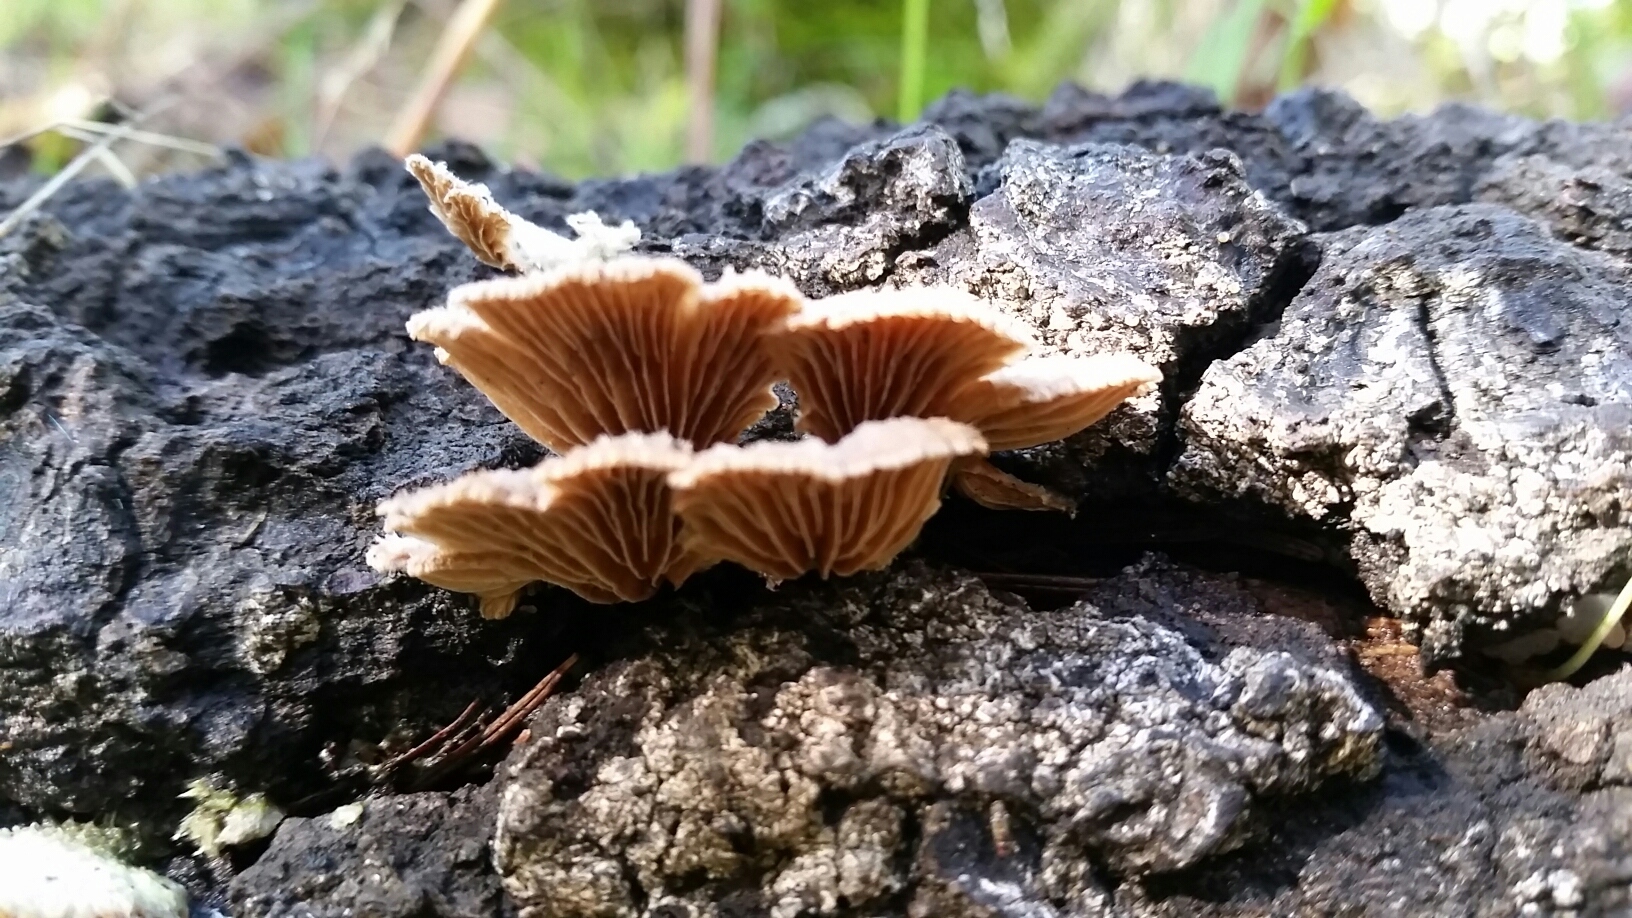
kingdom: Fungi
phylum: Basidiomycota
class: Agaricomycetes
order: Agaricales
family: Schizophyllaceae
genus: Schizophyllum
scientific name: Schizophyllum commune
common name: Common porecrust
